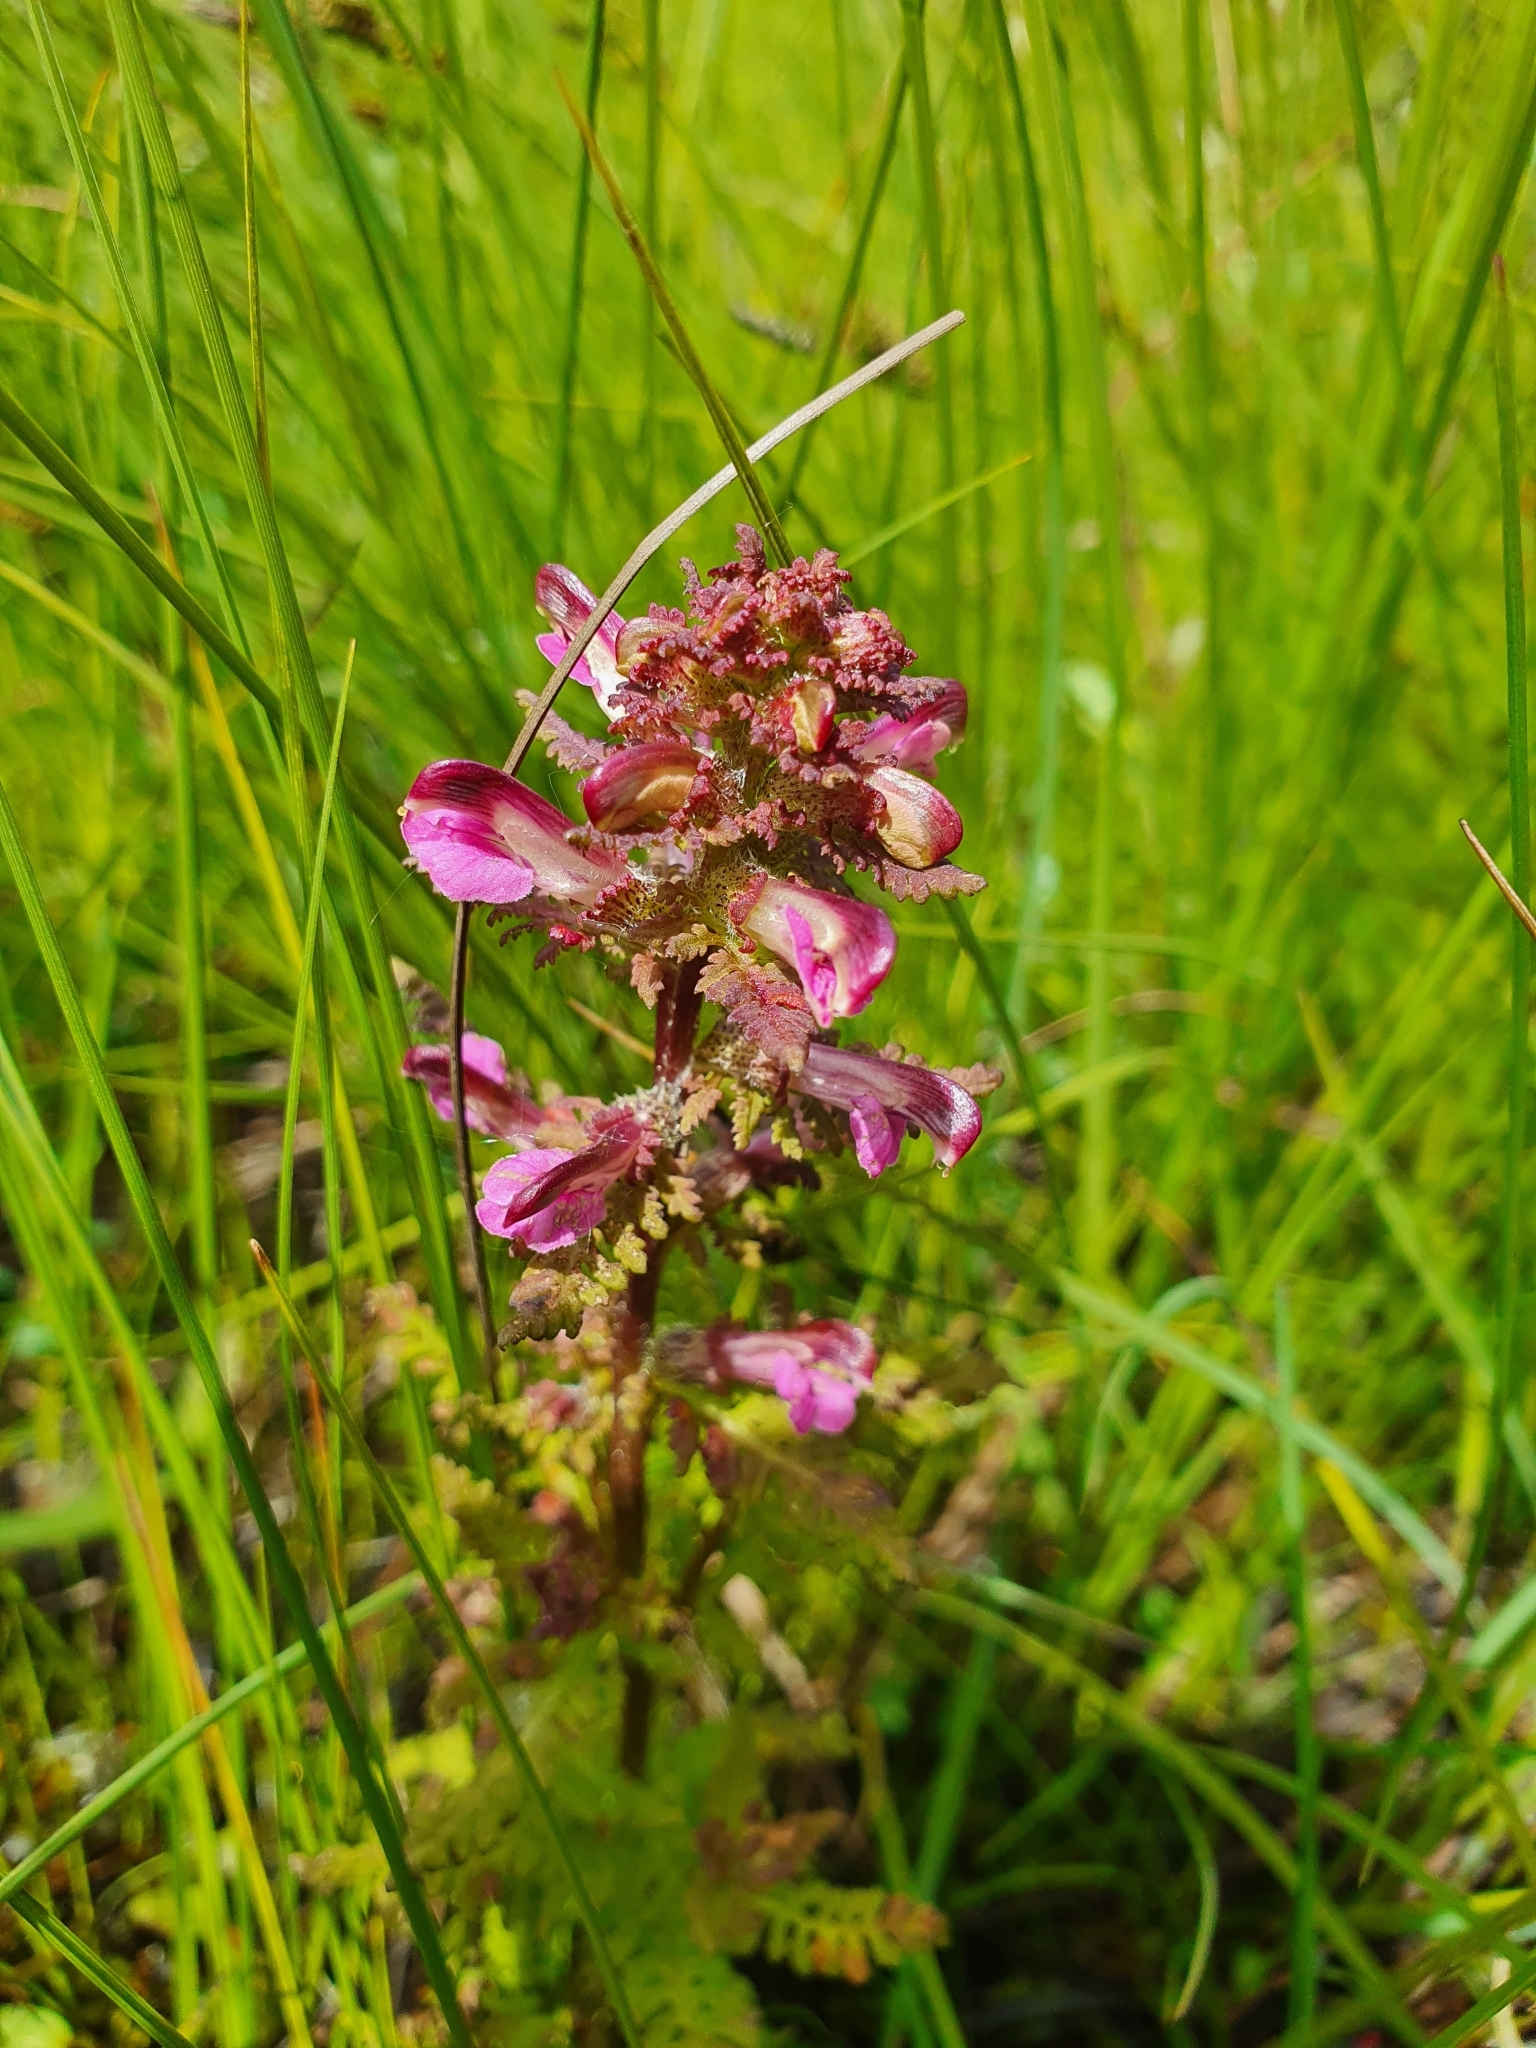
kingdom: Plantae
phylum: Tracheophyta
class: Magnoliopsida
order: Lamiales
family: Orobanchaceae
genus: Pedicularis
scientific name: Pedicularis palustris
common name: Marsh lousewort
